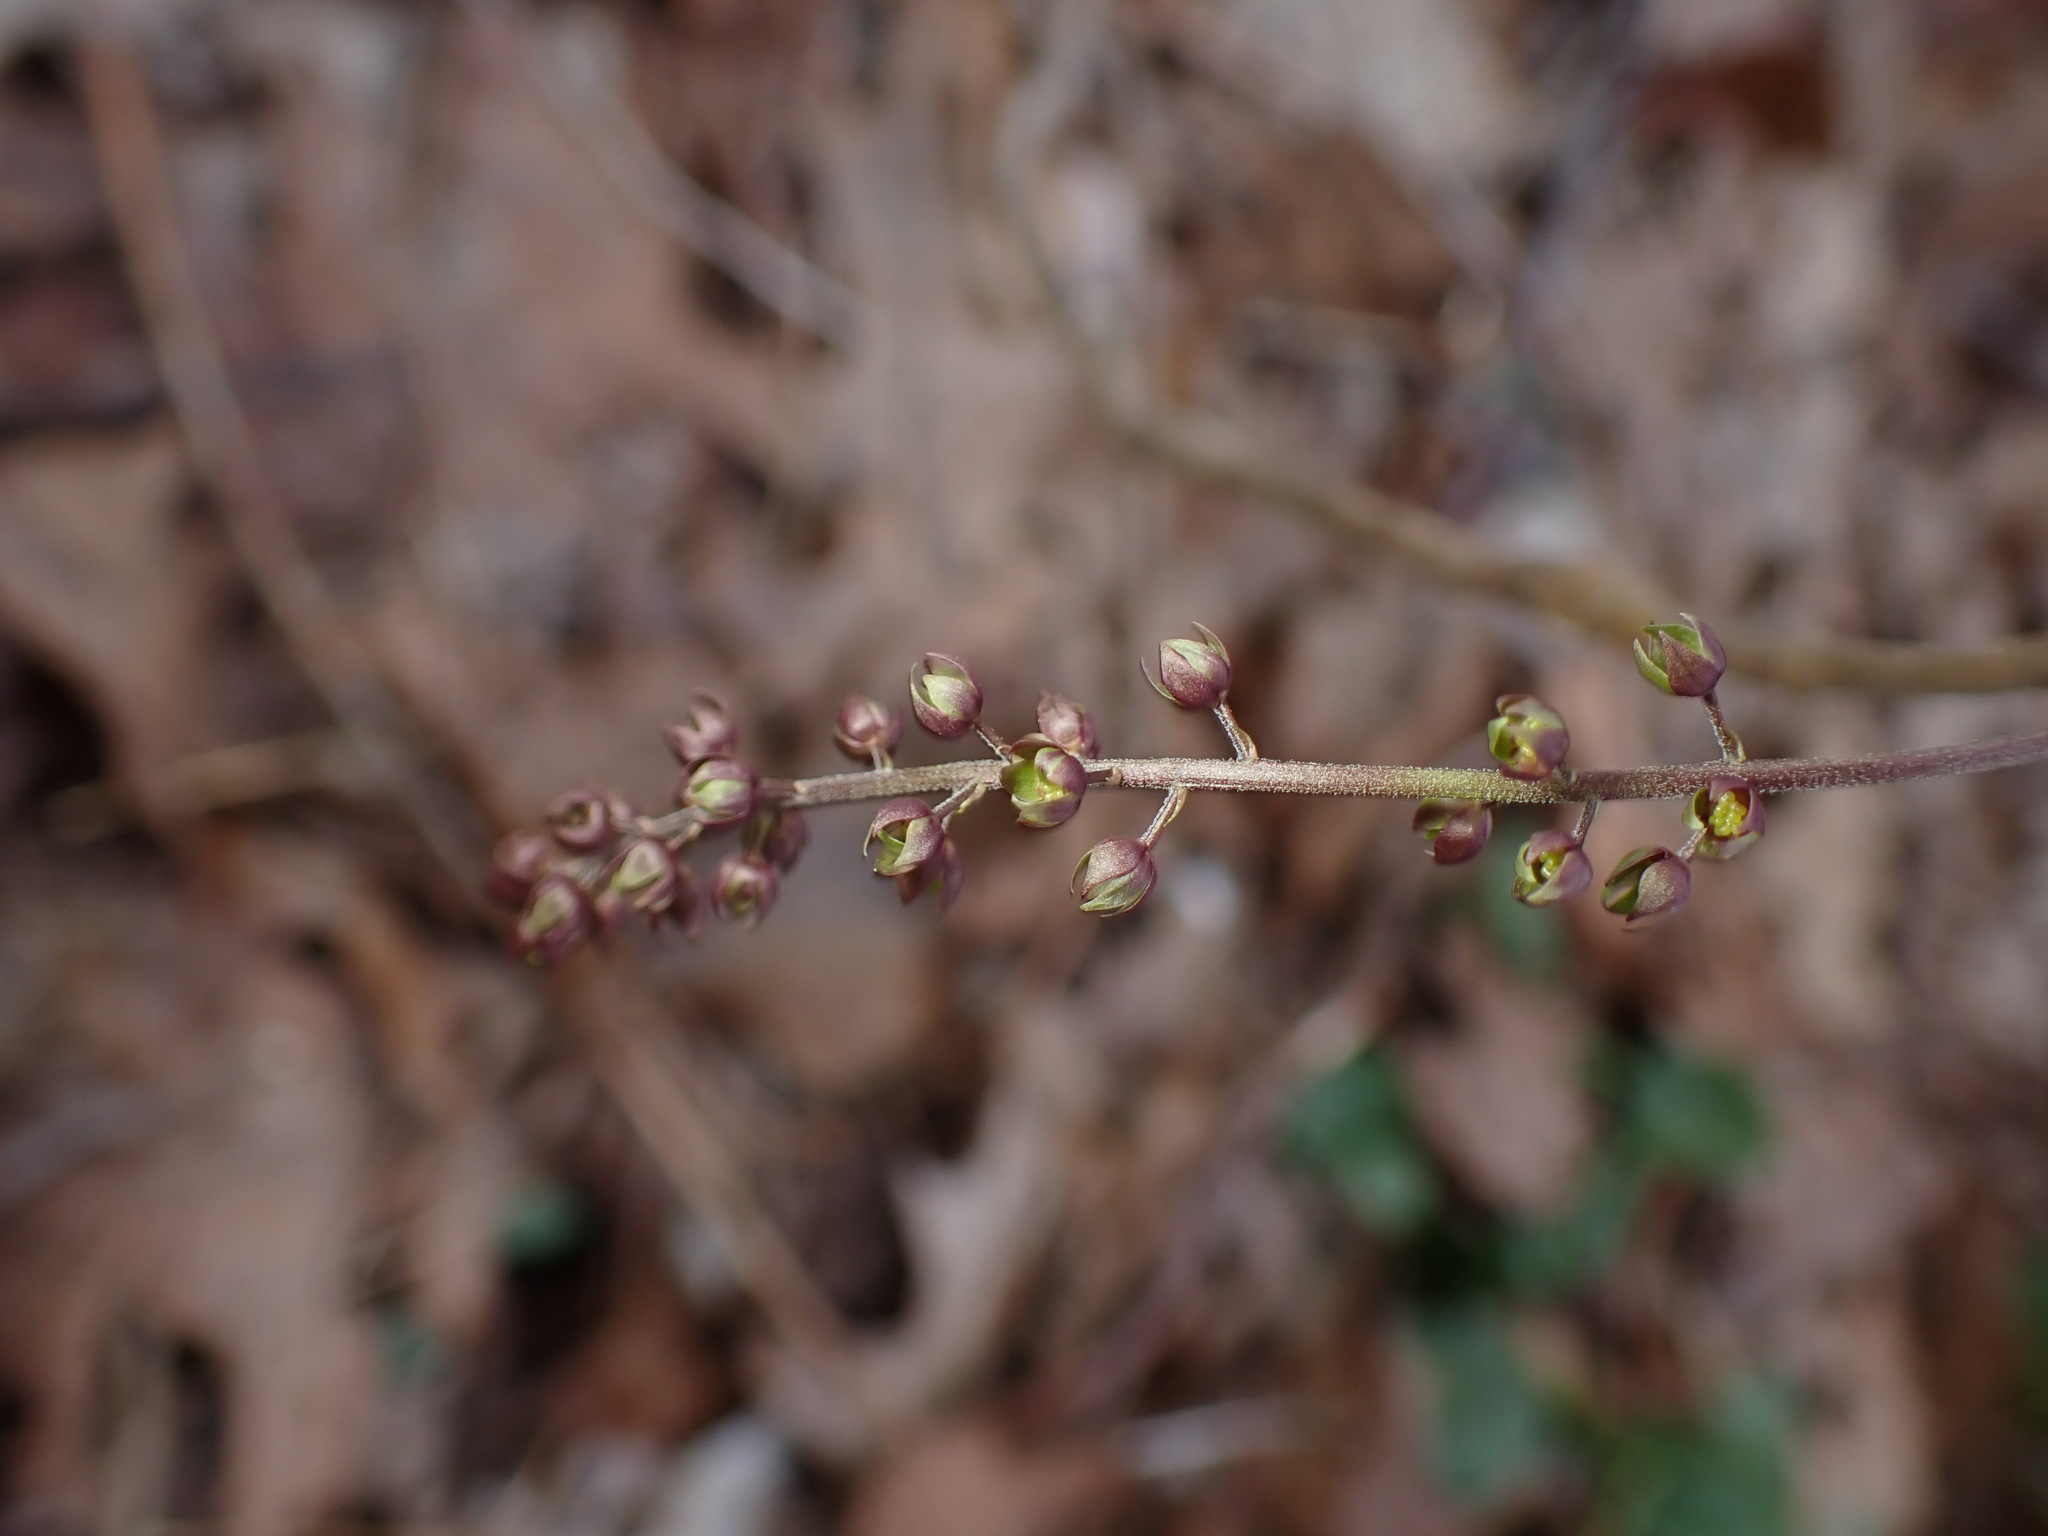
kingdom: Plantae
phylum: Tracheophyta
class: Magnoliopsida
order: Ranunculales
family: Ranunculaceae
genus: Xanthorhiza
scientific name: Xanthorhiza simplicissima
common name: Yellowroot
